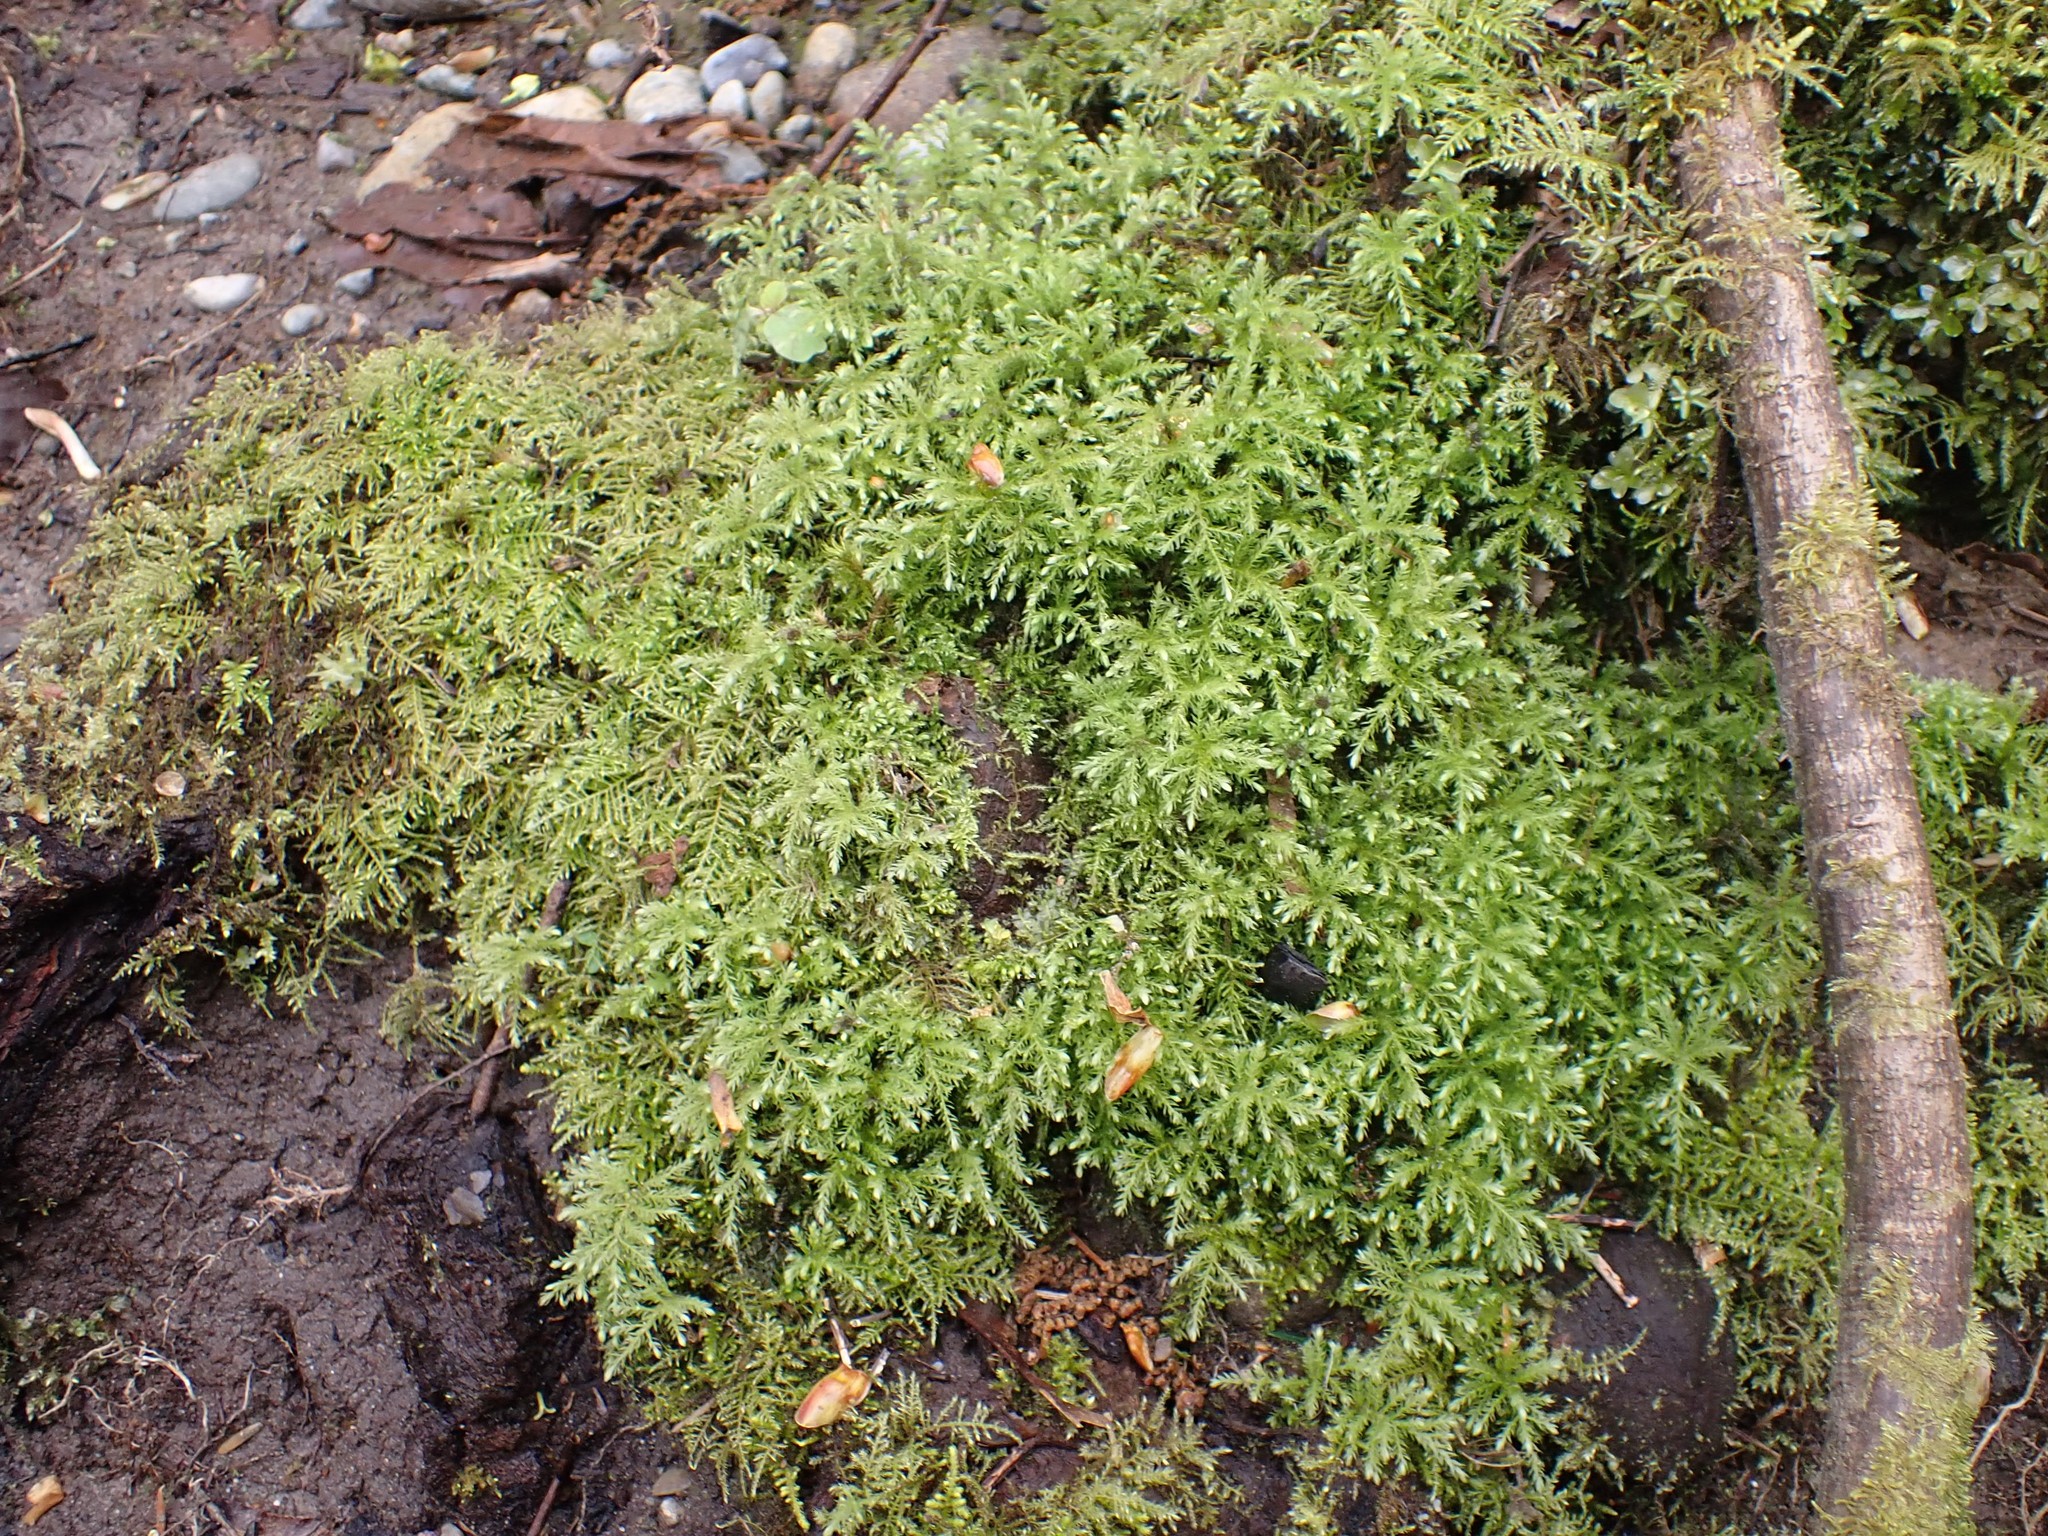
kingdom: Plantae
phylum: Bryophyta
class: Bryopsida
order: Bryales
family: Mniaceae
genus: Leucolepis
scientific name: Leucolepis acanthoneura
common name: Leucolepis umbrella moss
